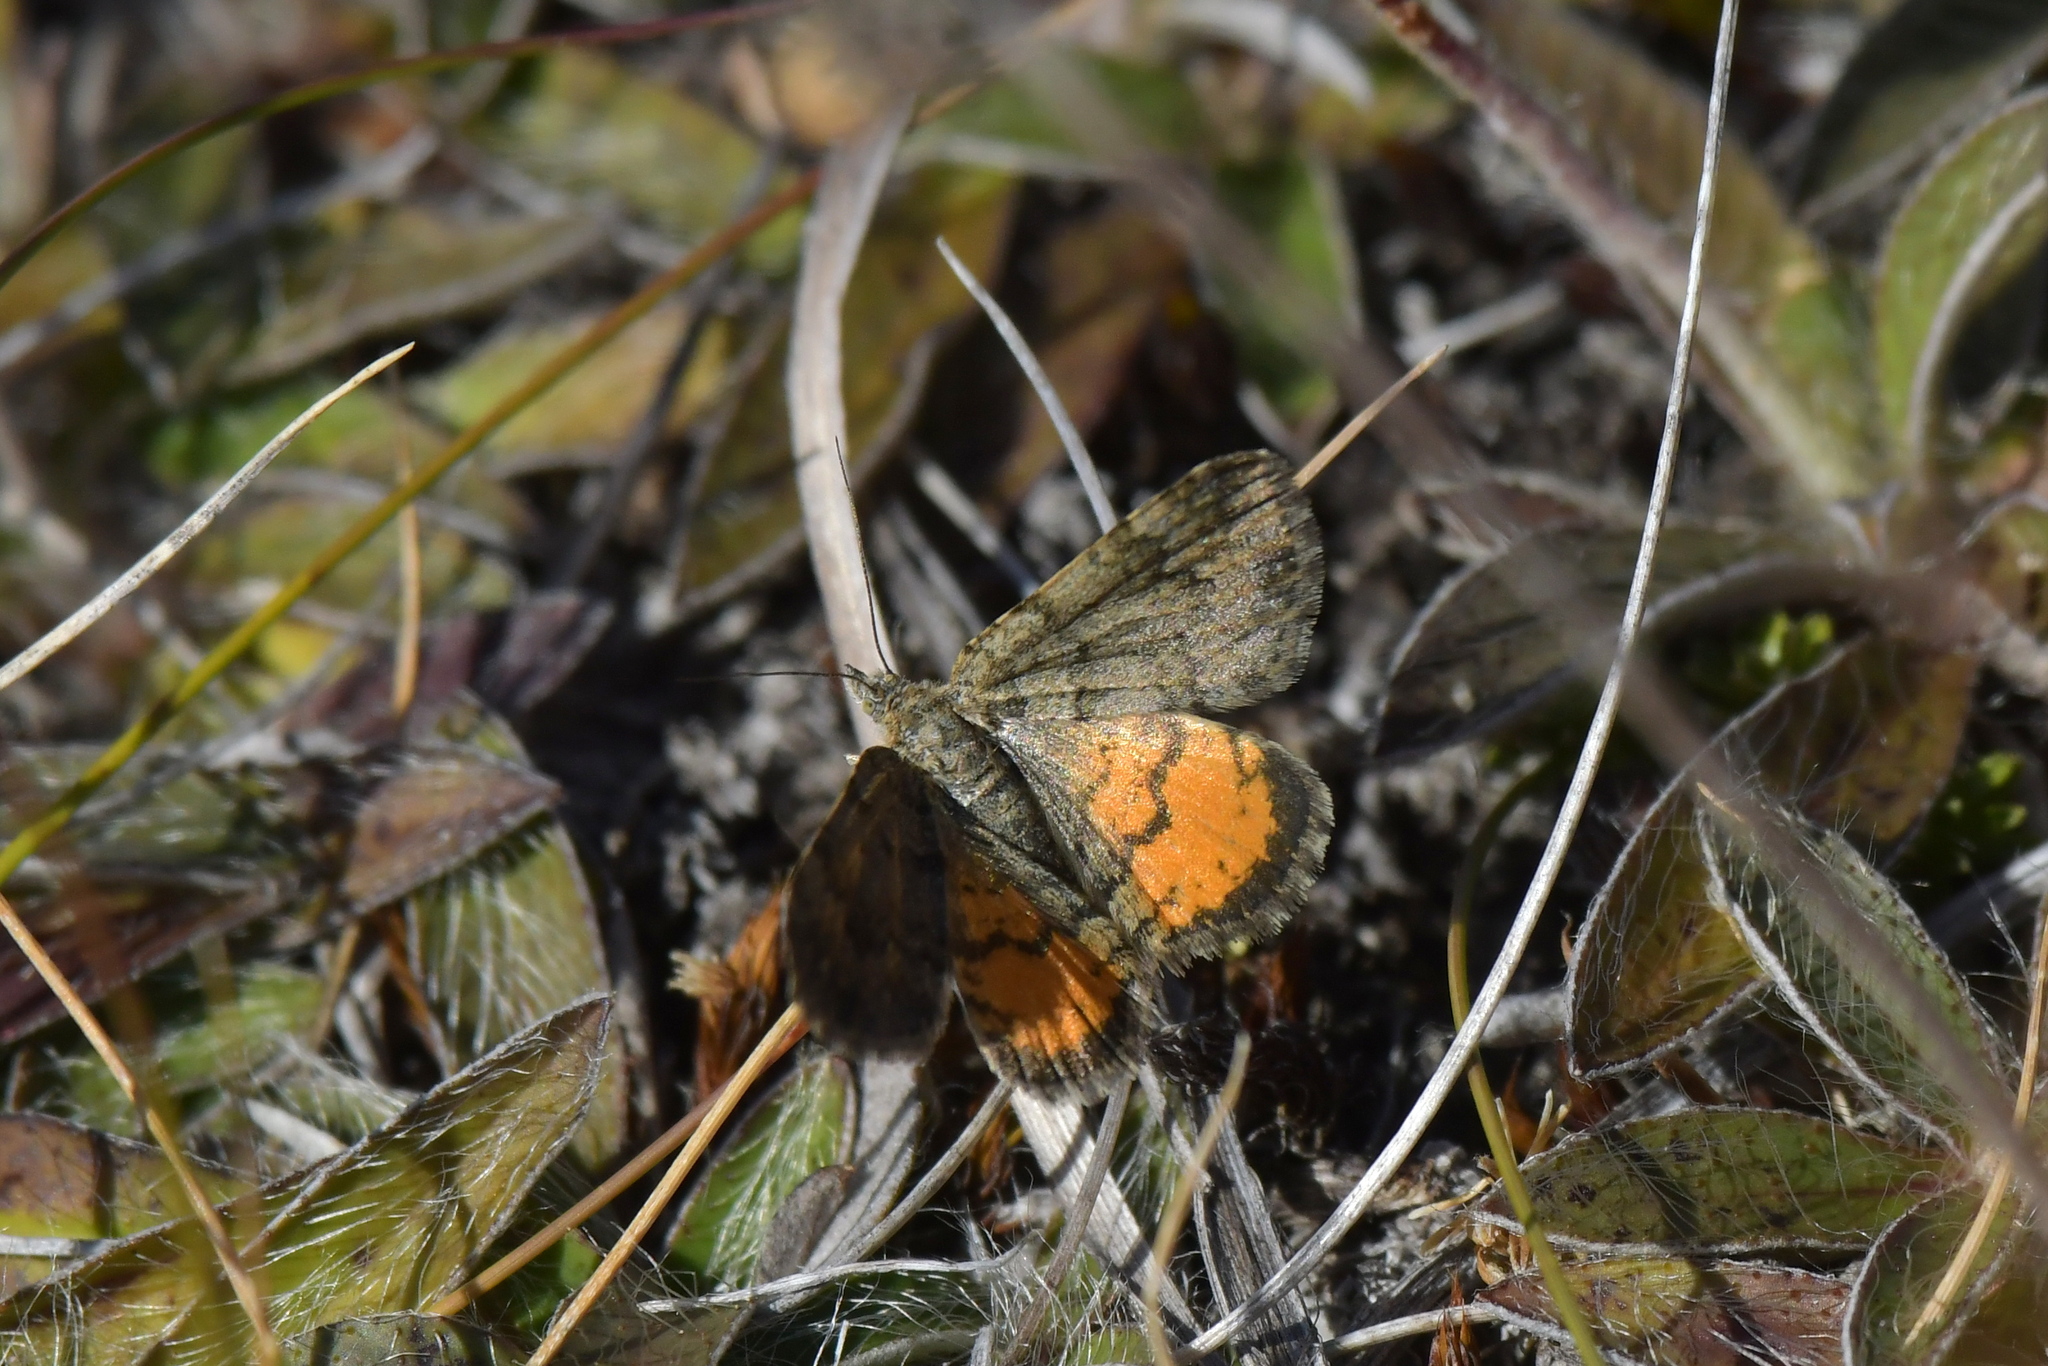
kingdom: Animalia
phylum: Arthropoda
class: Insecta
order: Lepidoptera
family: Geometridae
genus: Paranotoreas
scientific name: Paranotoreas brephosata
